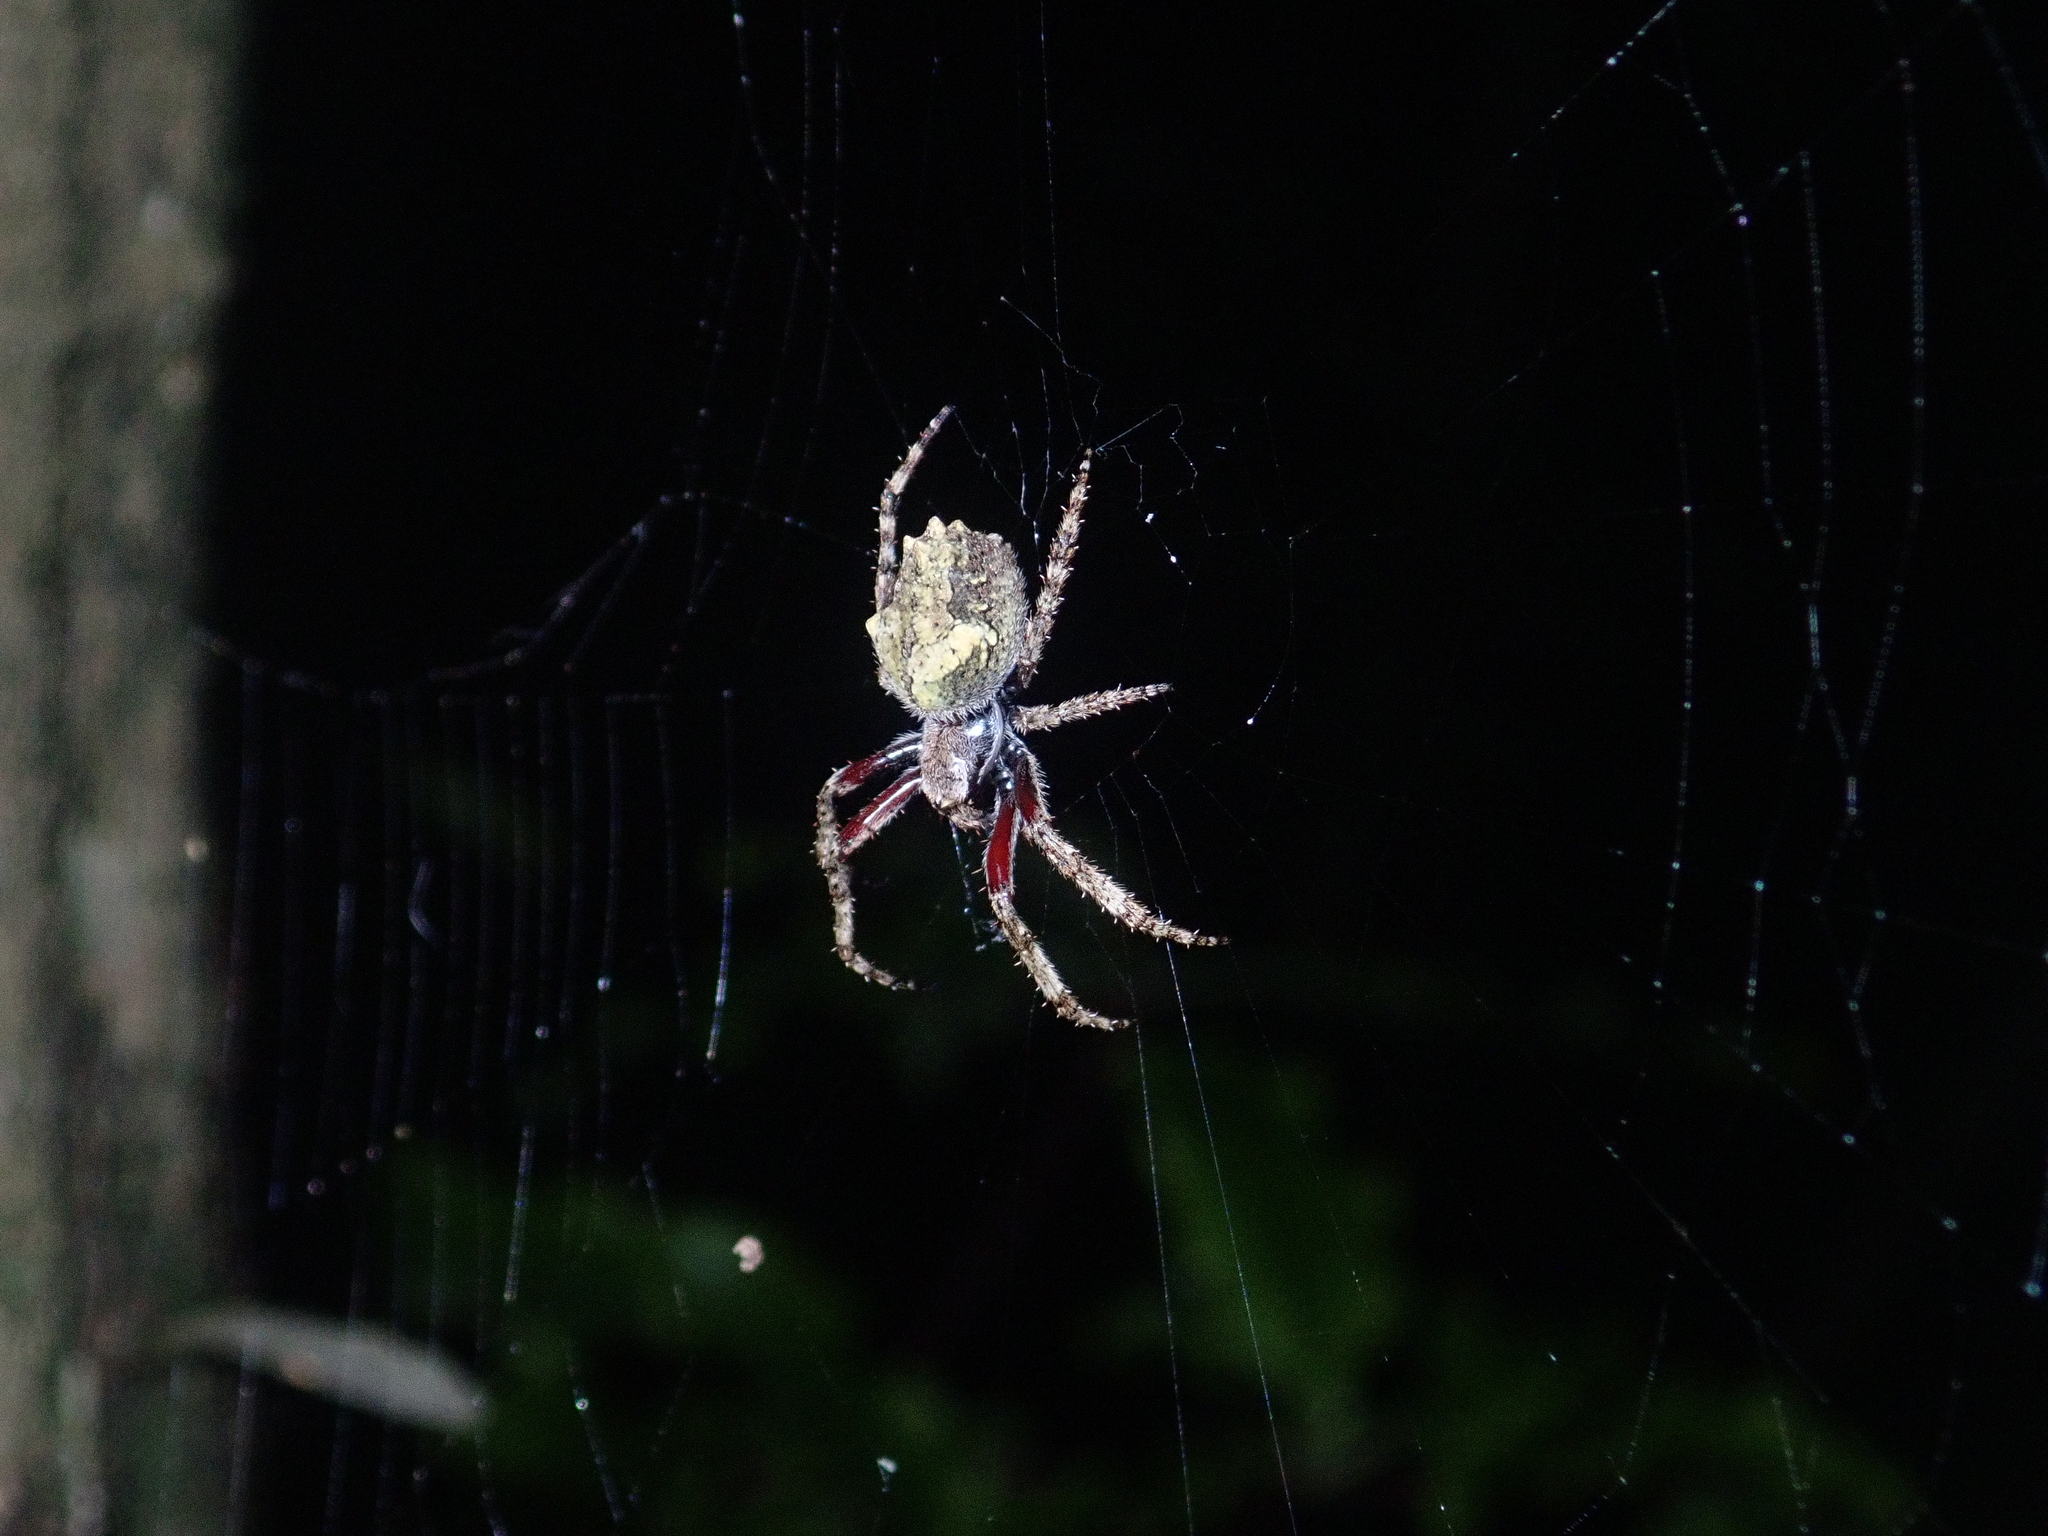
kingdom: Animalia
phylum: Arthropoda
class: Arachnida
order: Araneae
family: Araneidae
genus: Eriophora
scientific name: Eriophora pustulosa
